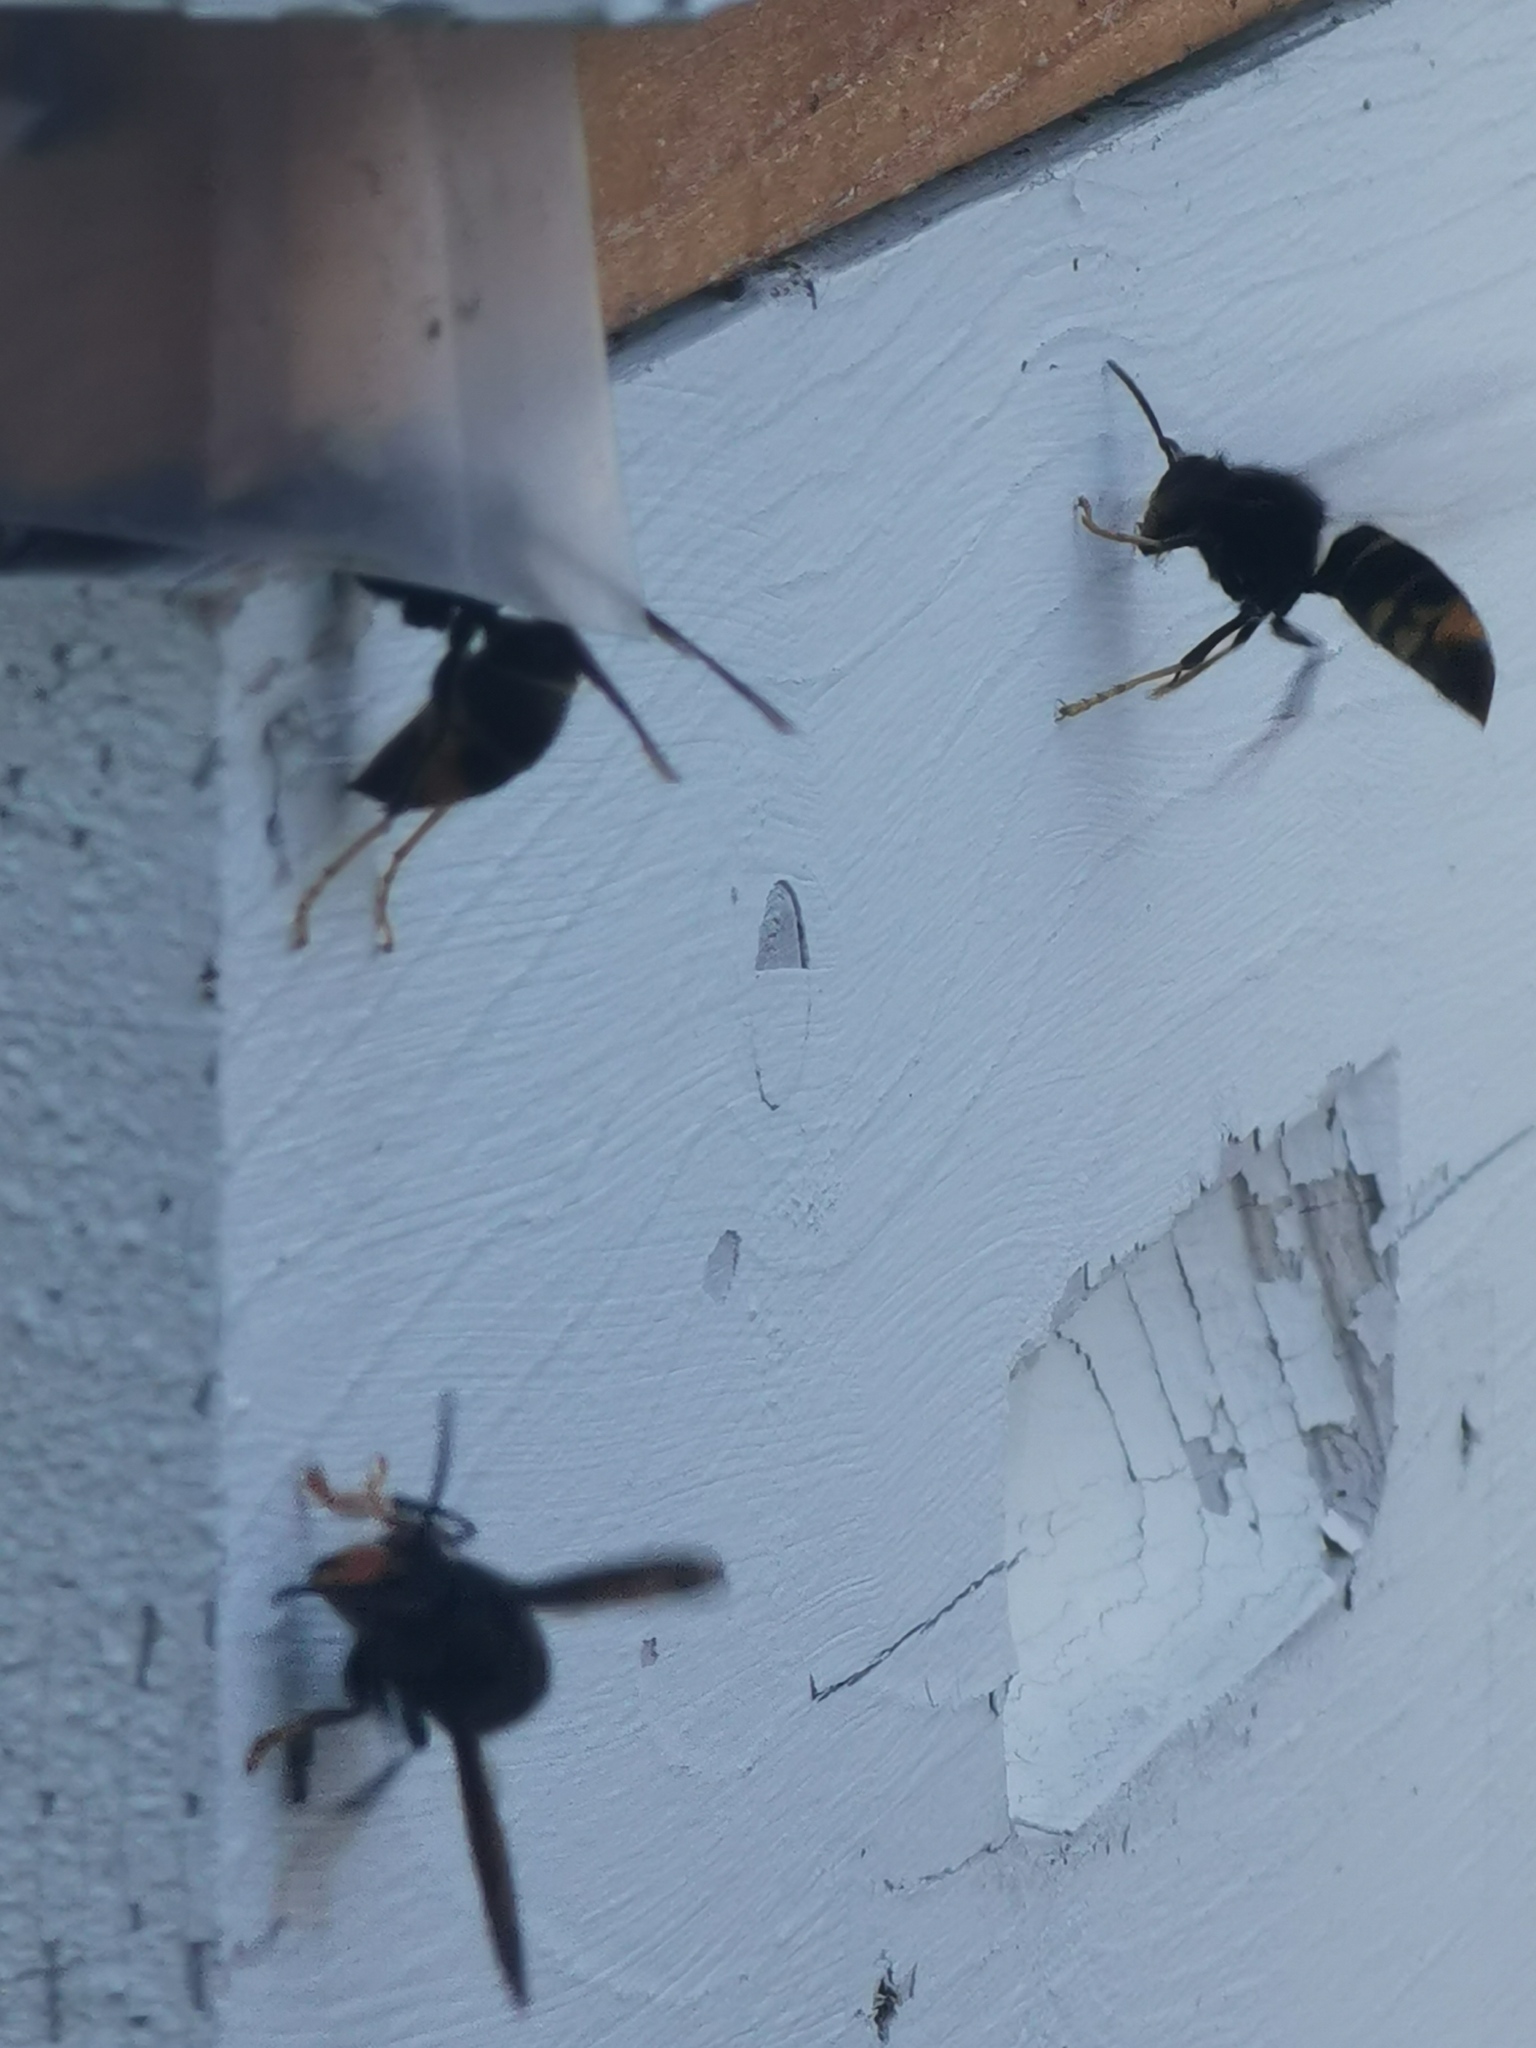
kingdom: Animalia
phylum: Arthropoda
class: Insecta
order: Hymenoptera
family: Vespidae
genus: Vespa
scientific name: Vespa velutina
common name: Asian hornet
